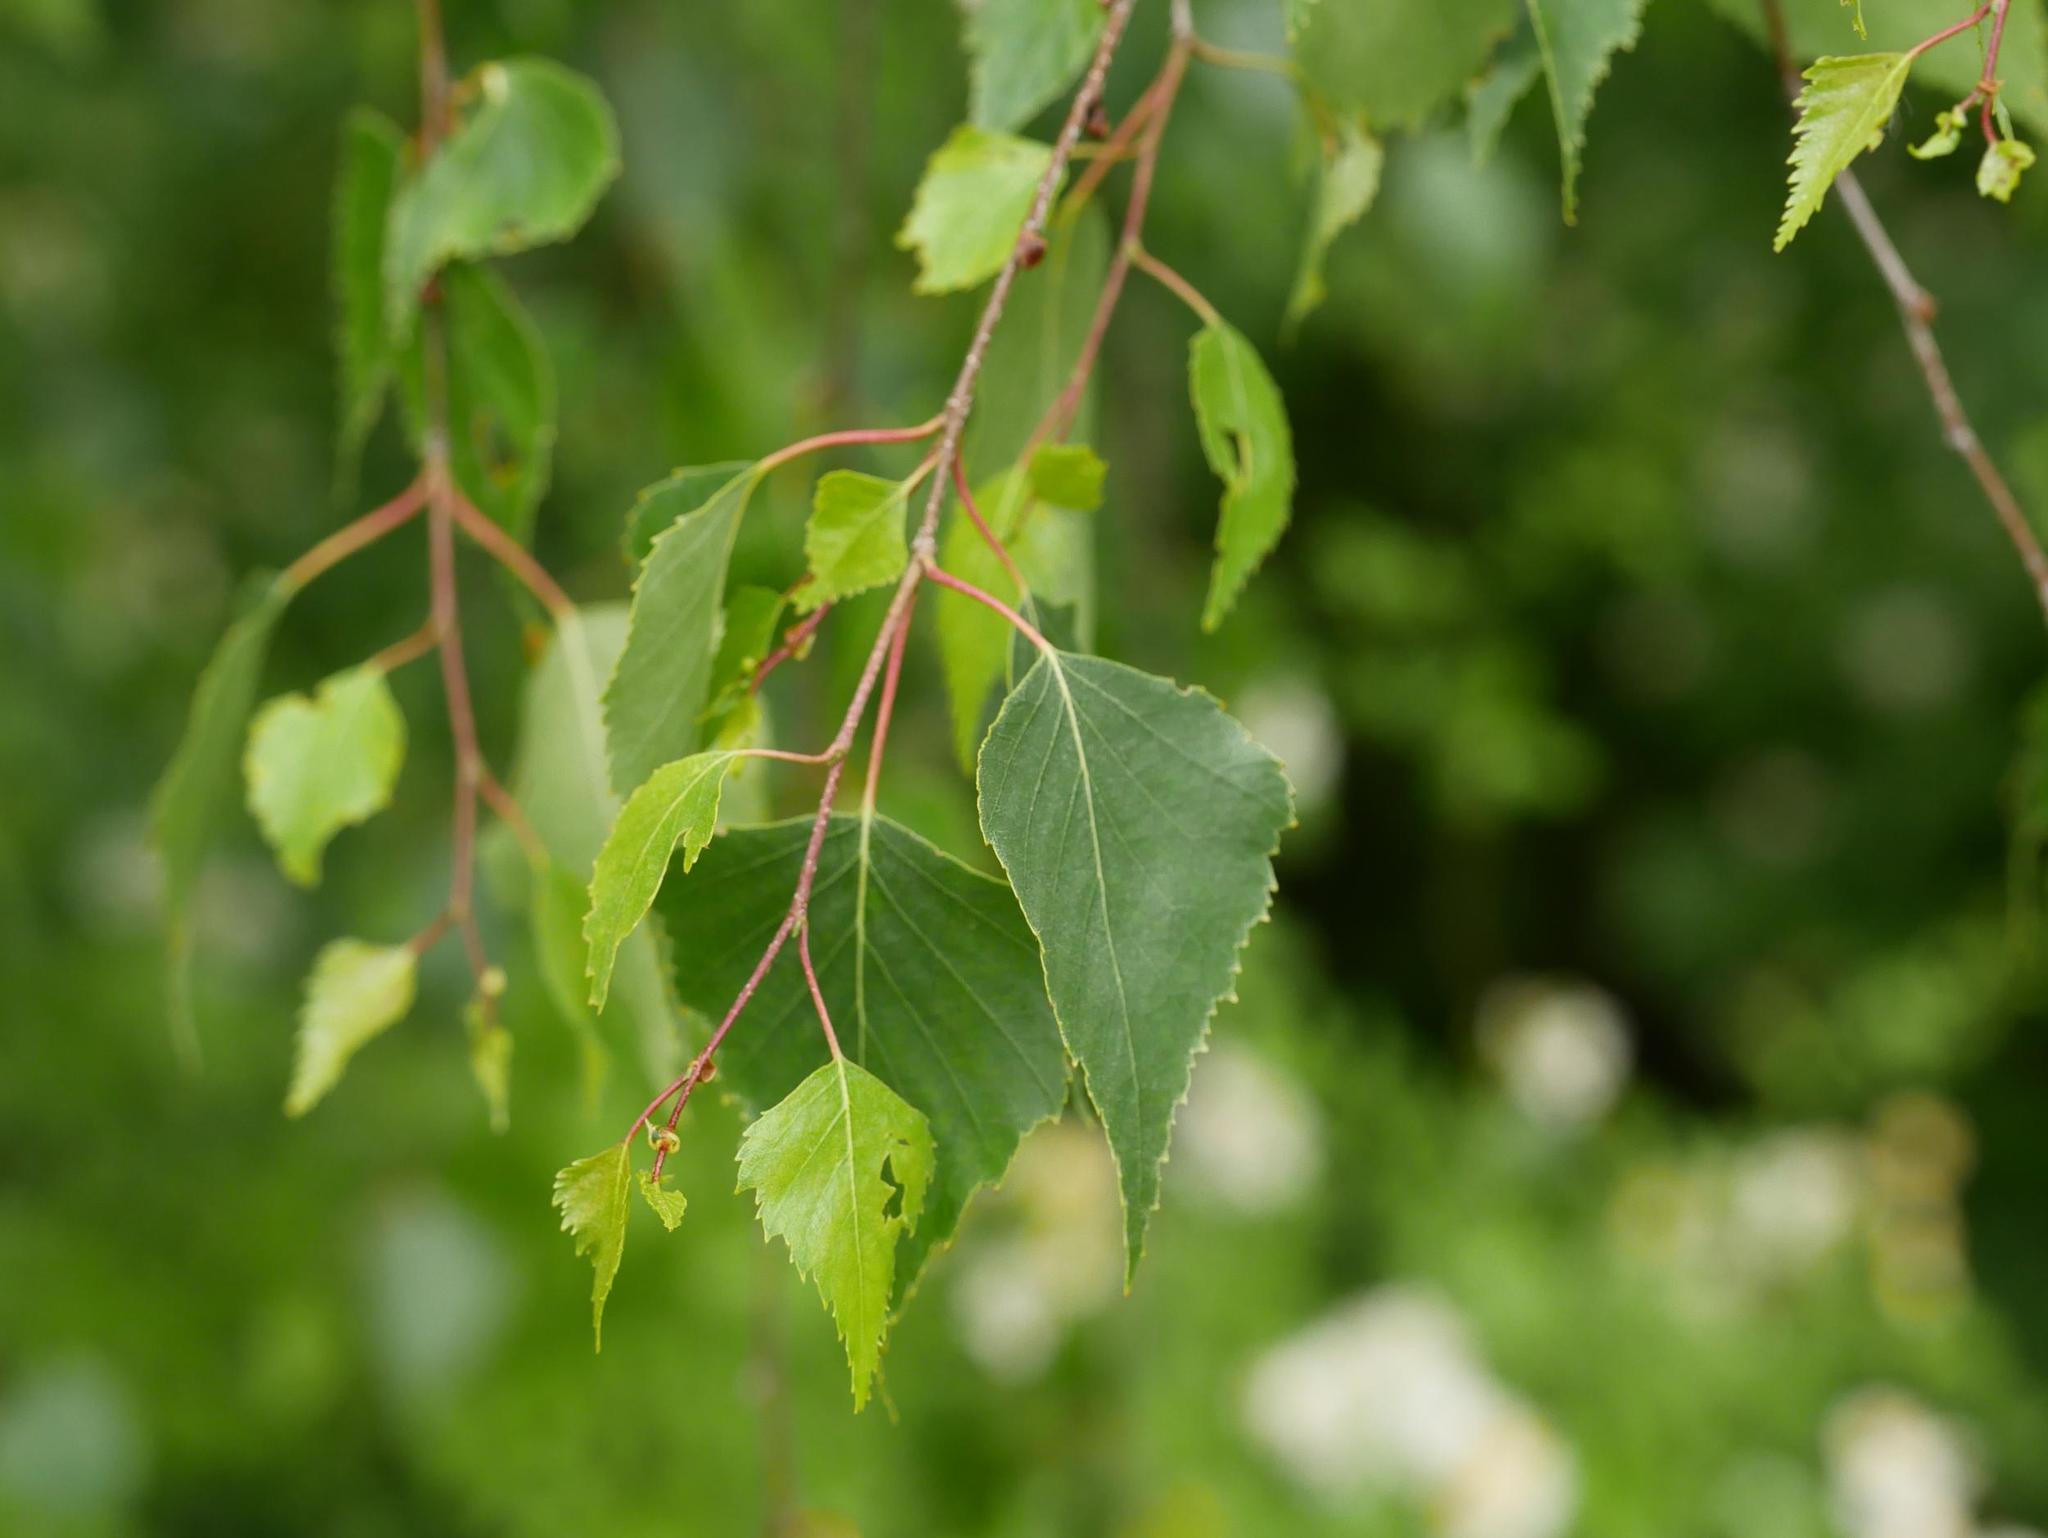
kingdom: Plantae
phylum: Tracheophyta
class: Magnoliopsida
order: Fagales
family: Betulaceae
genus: Betula
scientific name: Betula pendula
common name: Silver birch
